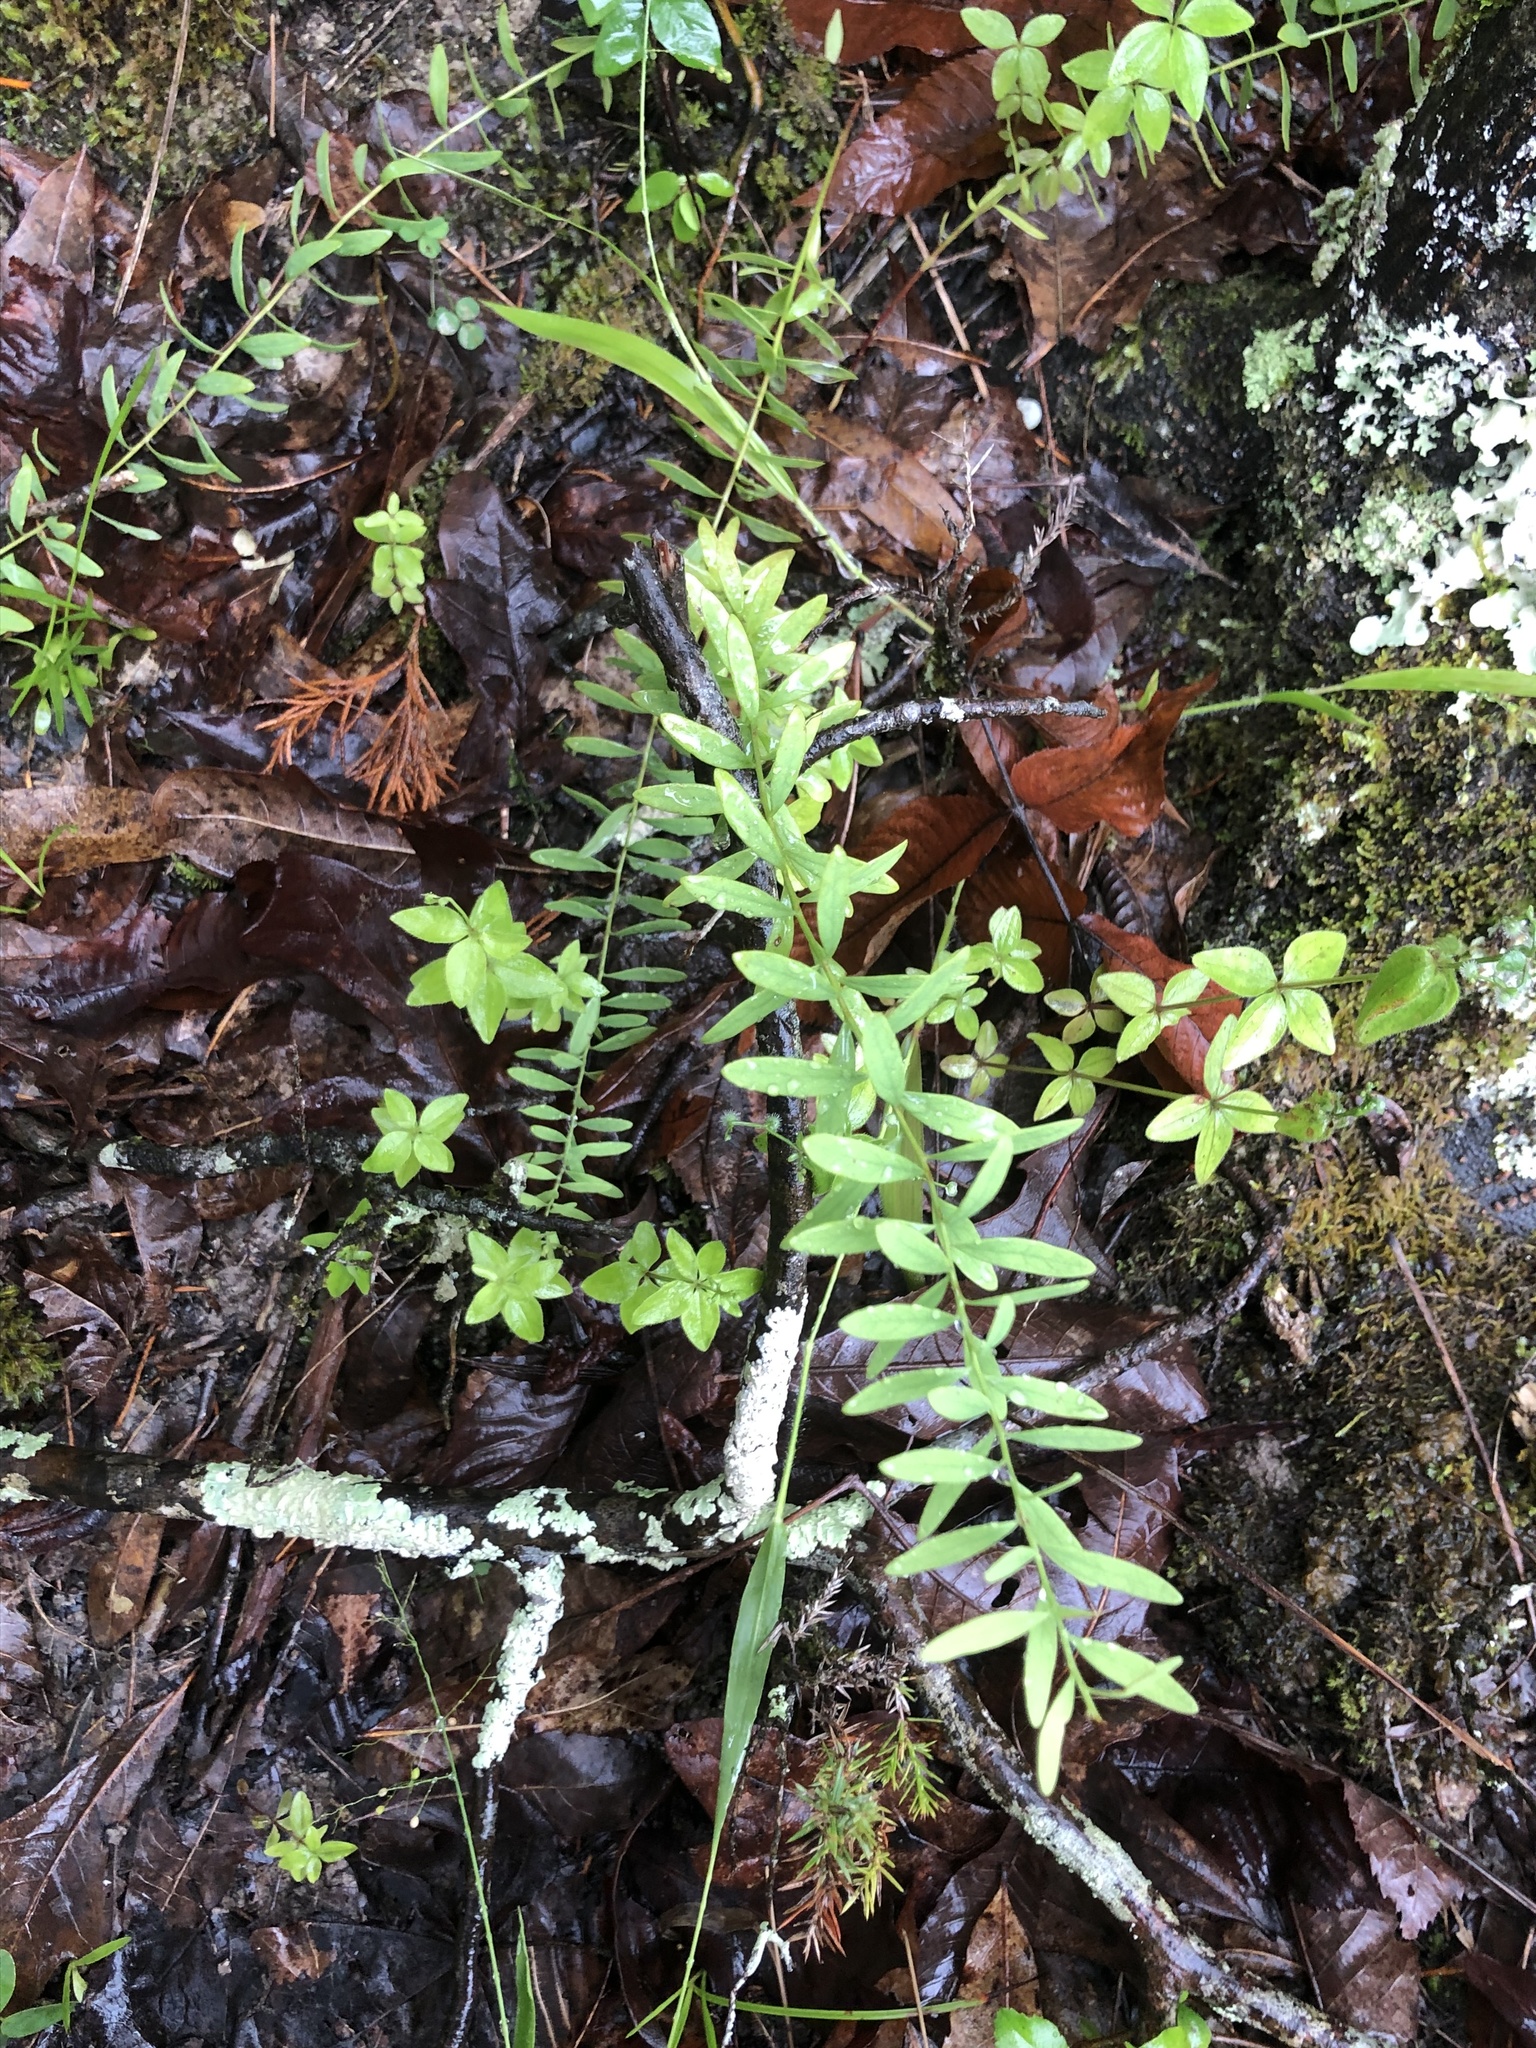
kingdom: Plantae
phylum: Tracheophyta
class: Magnoliopsida
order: Santalales
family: Comandraceae
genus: Comandra
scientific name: Comandra umbellata
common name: Bastard toadflax
